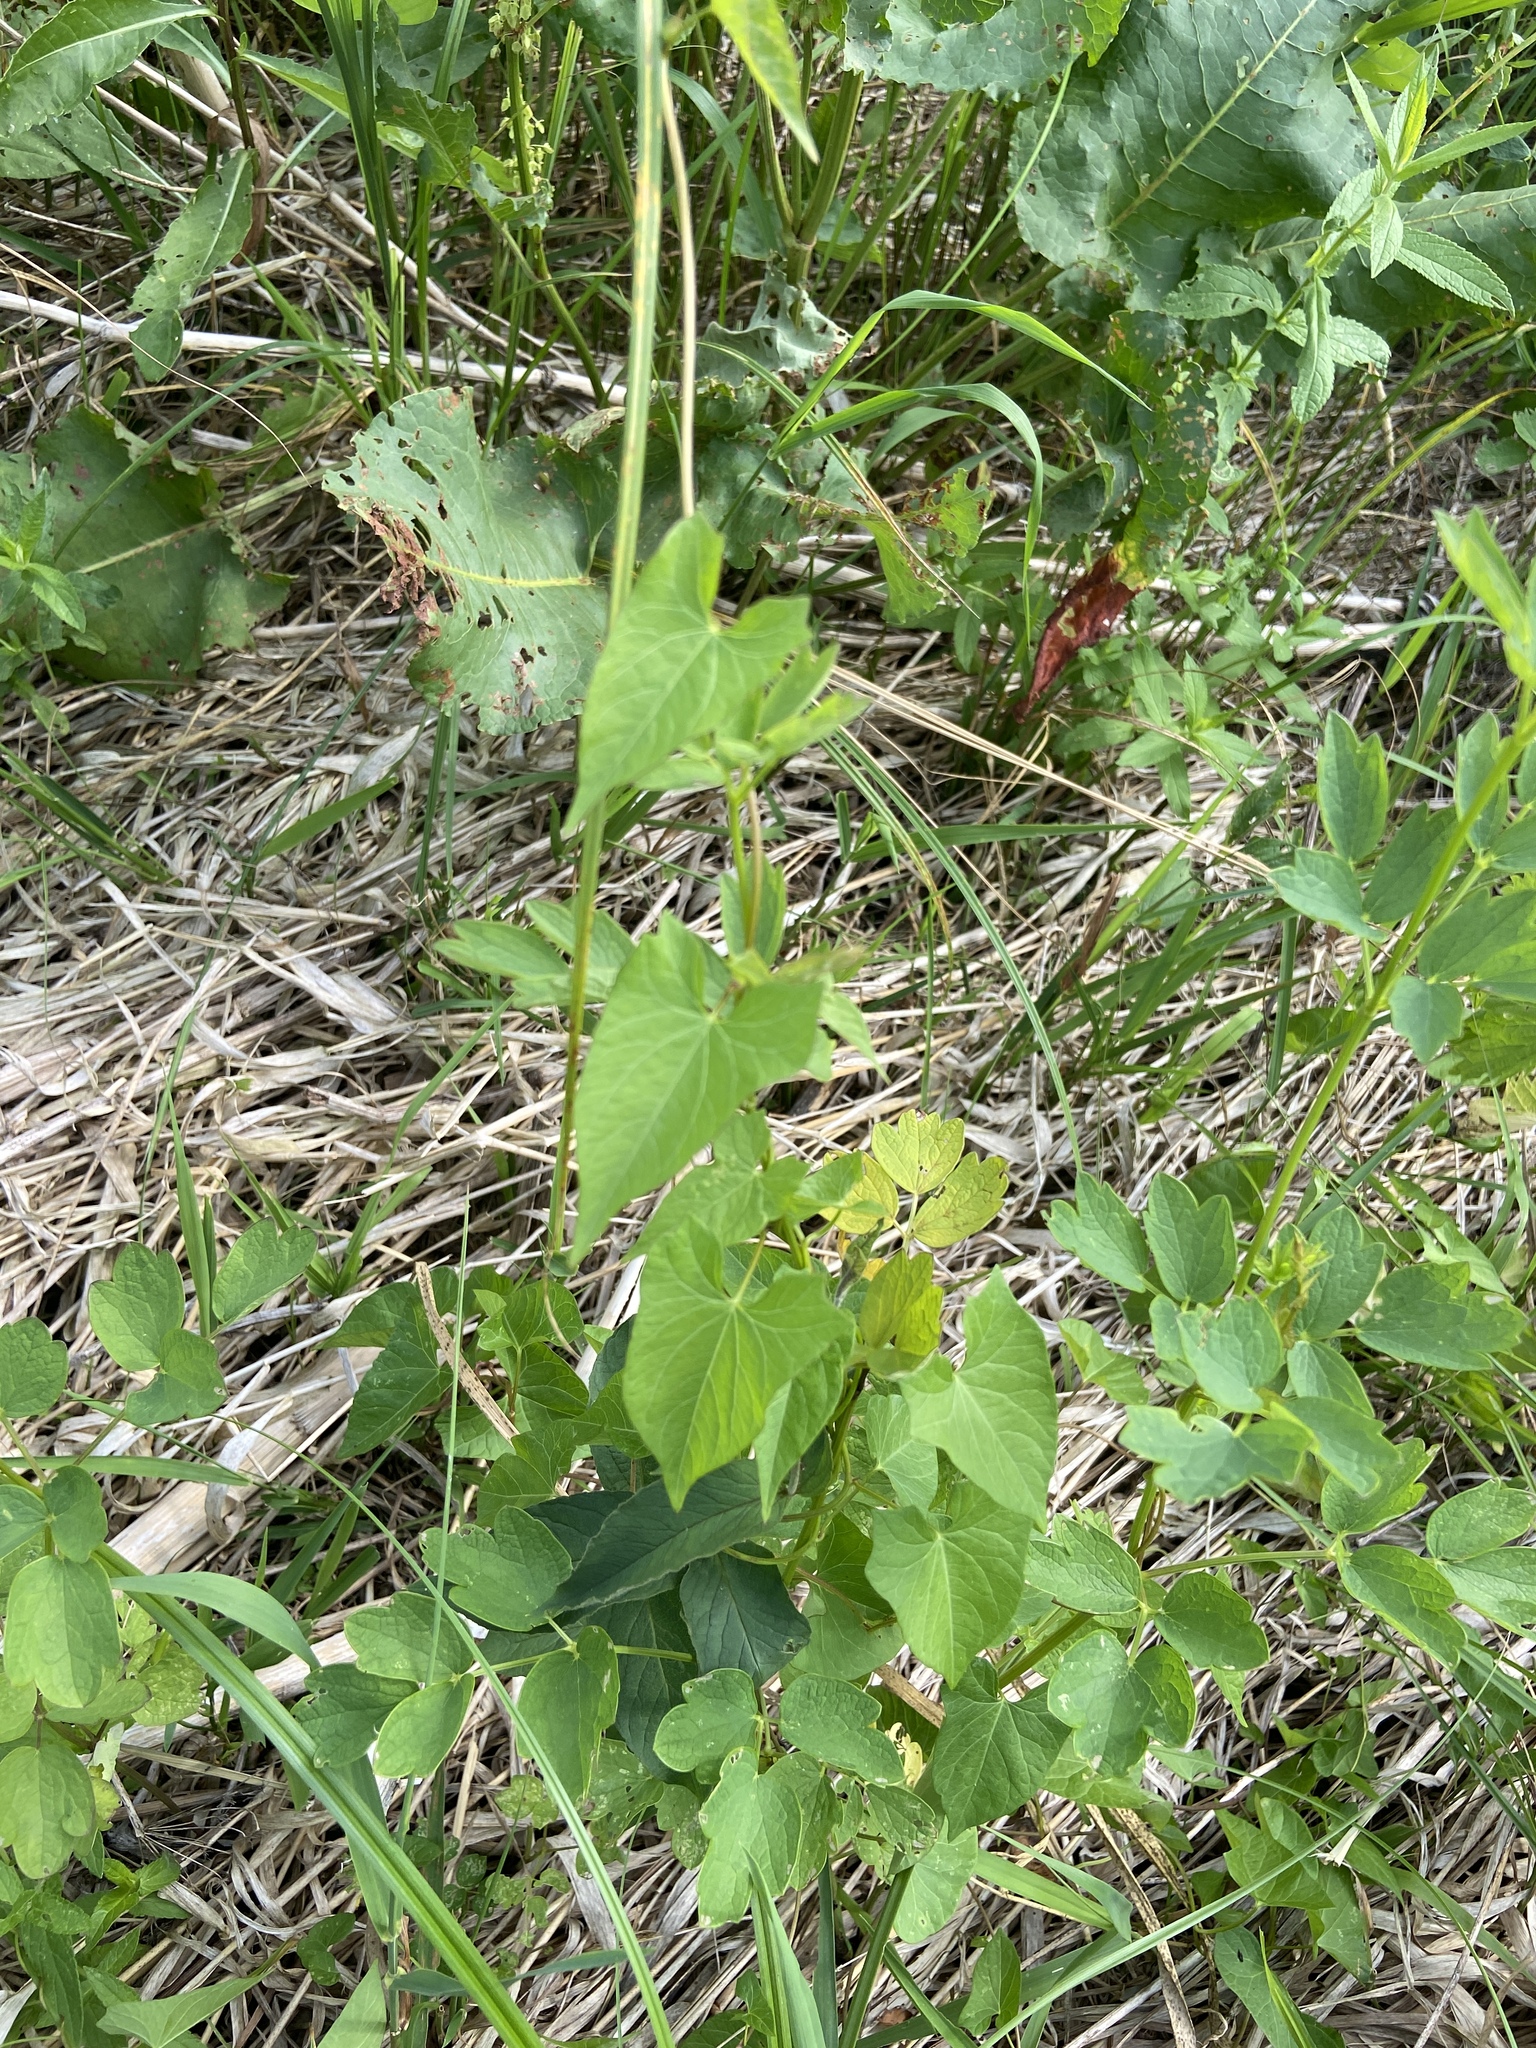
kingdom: Plantae
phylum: Tracheophyta
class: Magnoliopsida
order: Solanales
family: Convolvulaceae
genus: Calystegia
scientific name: Calystegia sepium
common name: Hedge bindweed
